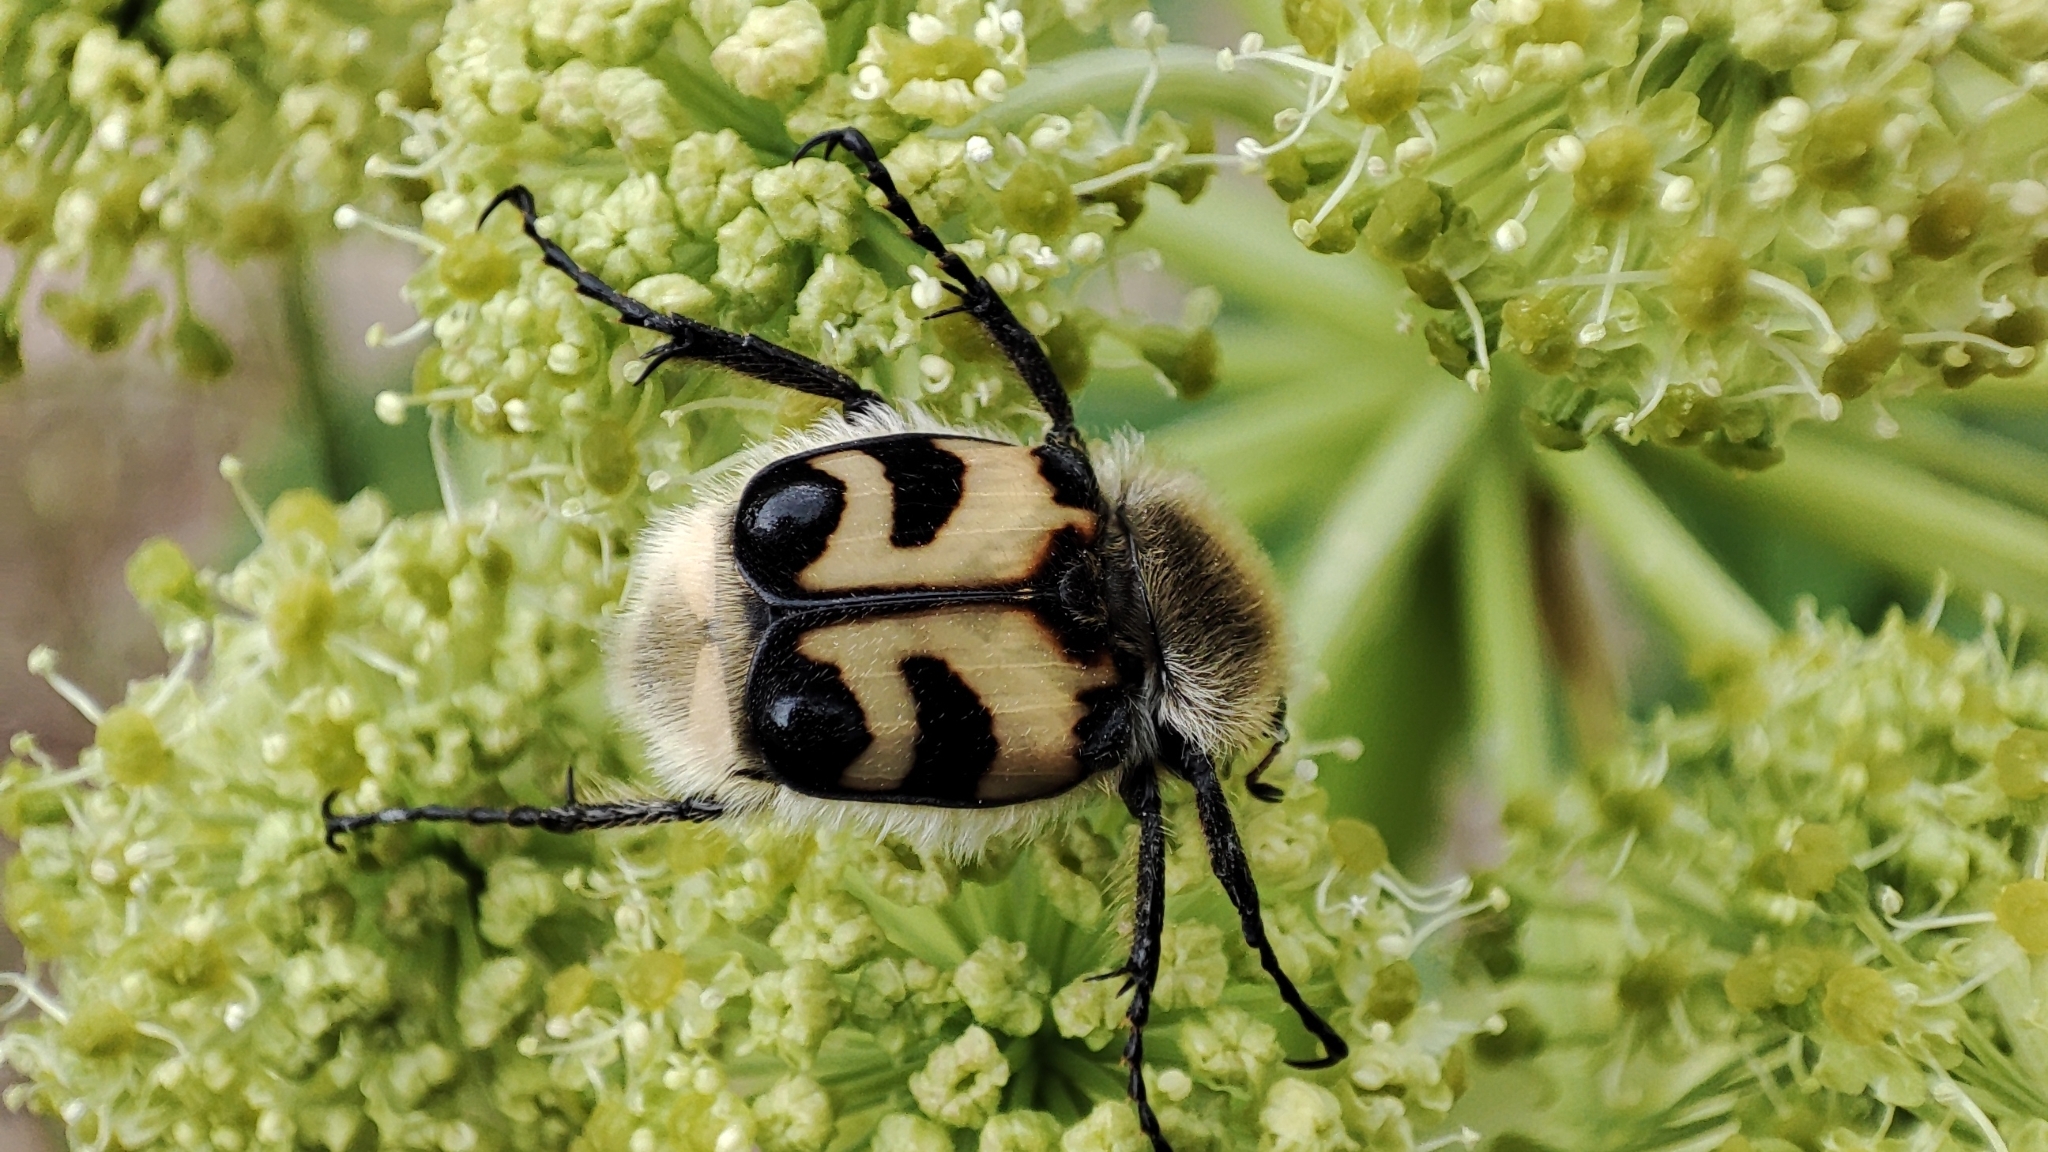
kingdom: Animalia
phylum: Arthropoda
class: Insecta
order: Coleoptera
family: Scarabaeidae
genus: Trichius
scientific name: Trichius fasciatus
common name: Bee beetle
